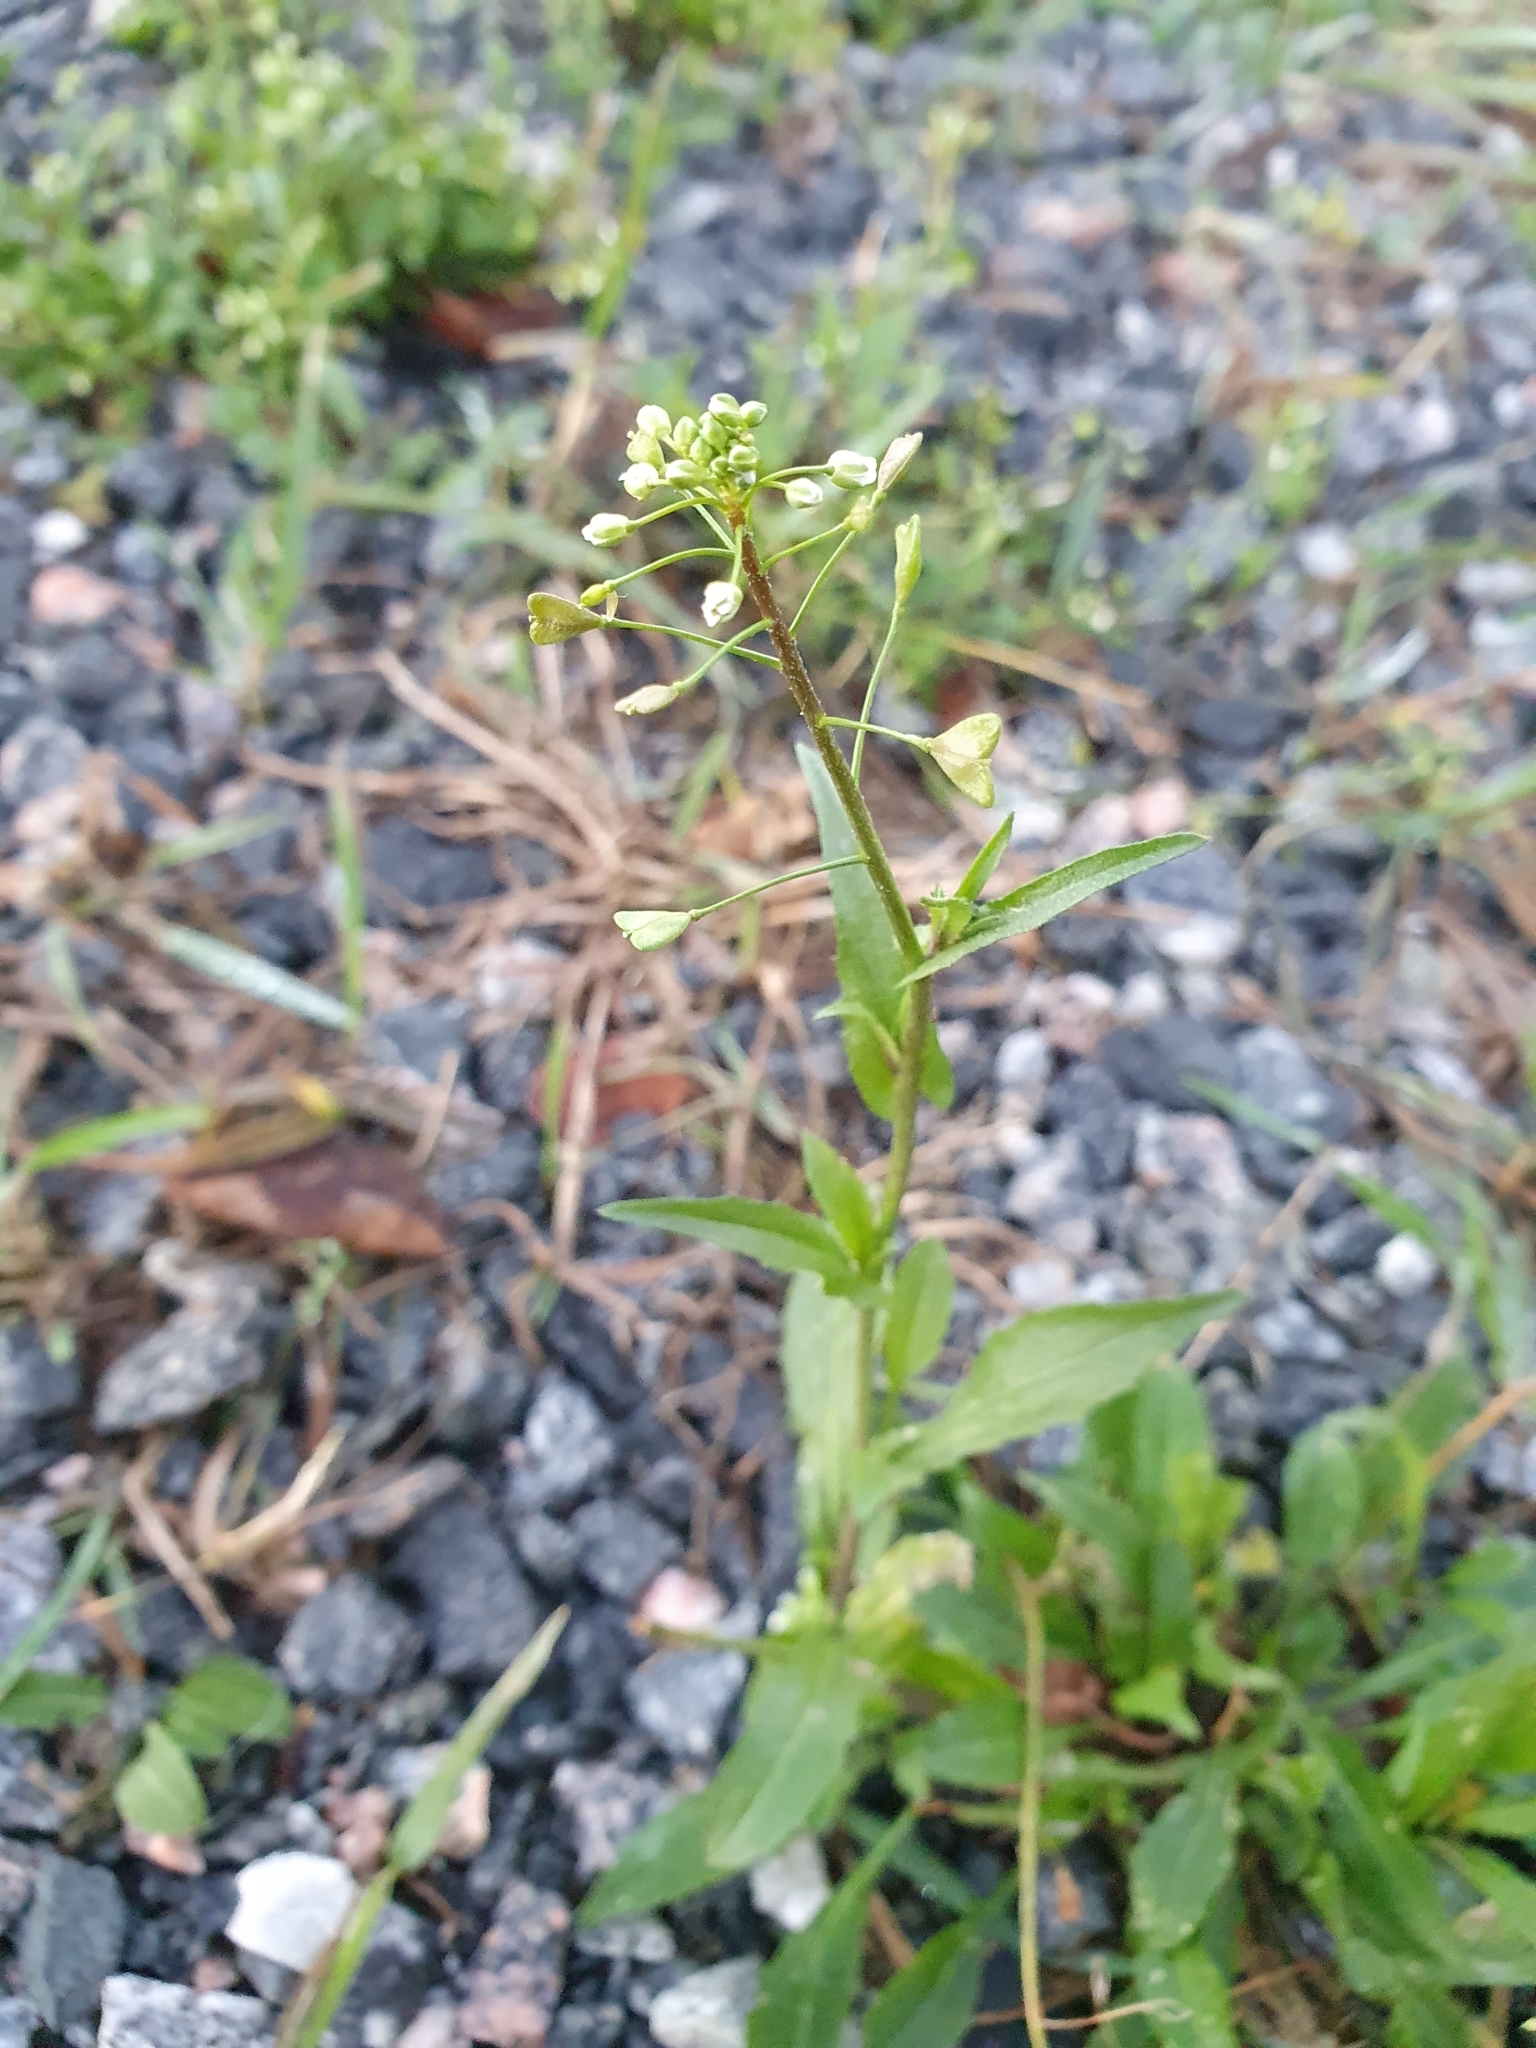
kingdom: Plantae
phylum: Tracheophyta
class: Magnoliopsida
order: Brassicales
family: Brassicaceae
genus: Capsella
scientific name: Capsella bursa-pastoris
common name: Shepherd's purse
